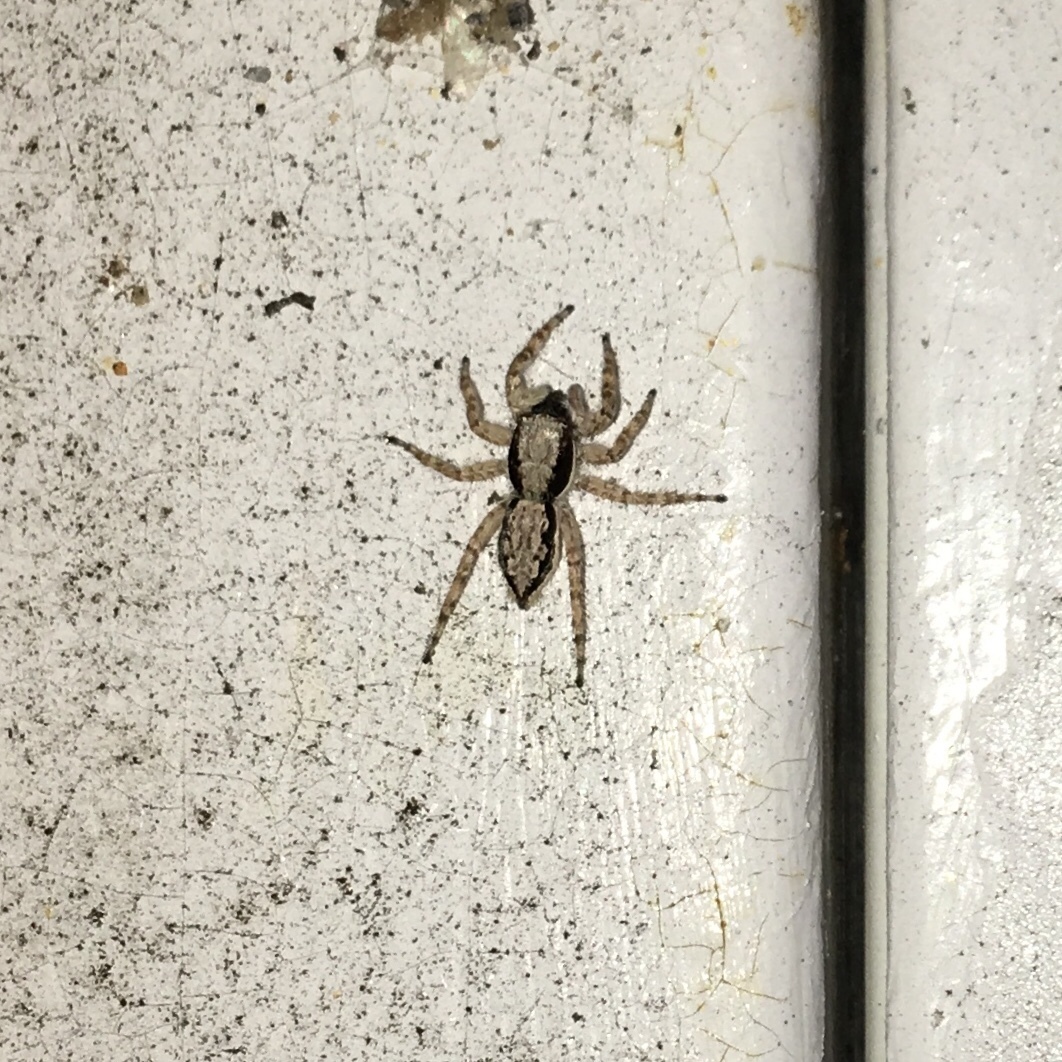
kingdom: Animalia
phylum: Arthropoda
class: Arachnida
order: Araneae
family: Salticidae
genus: Menemerus
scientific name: Menemerus bivittatus
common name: Gray wall jumper
